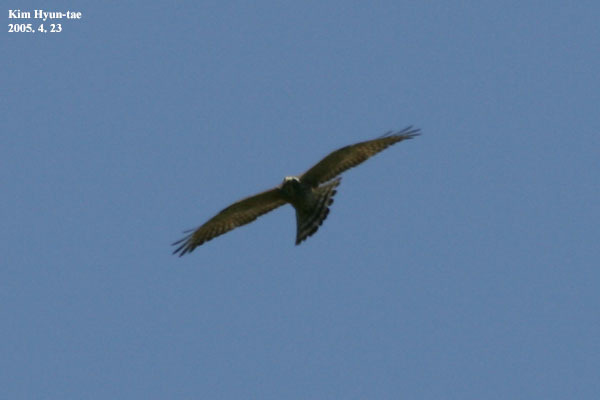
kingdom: Animalia
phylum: Chordata
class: Aves
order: Accipitriformes
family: Accipitridae
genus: Butastur
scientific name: Butastur indicus
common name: Grey-faced buzzard
